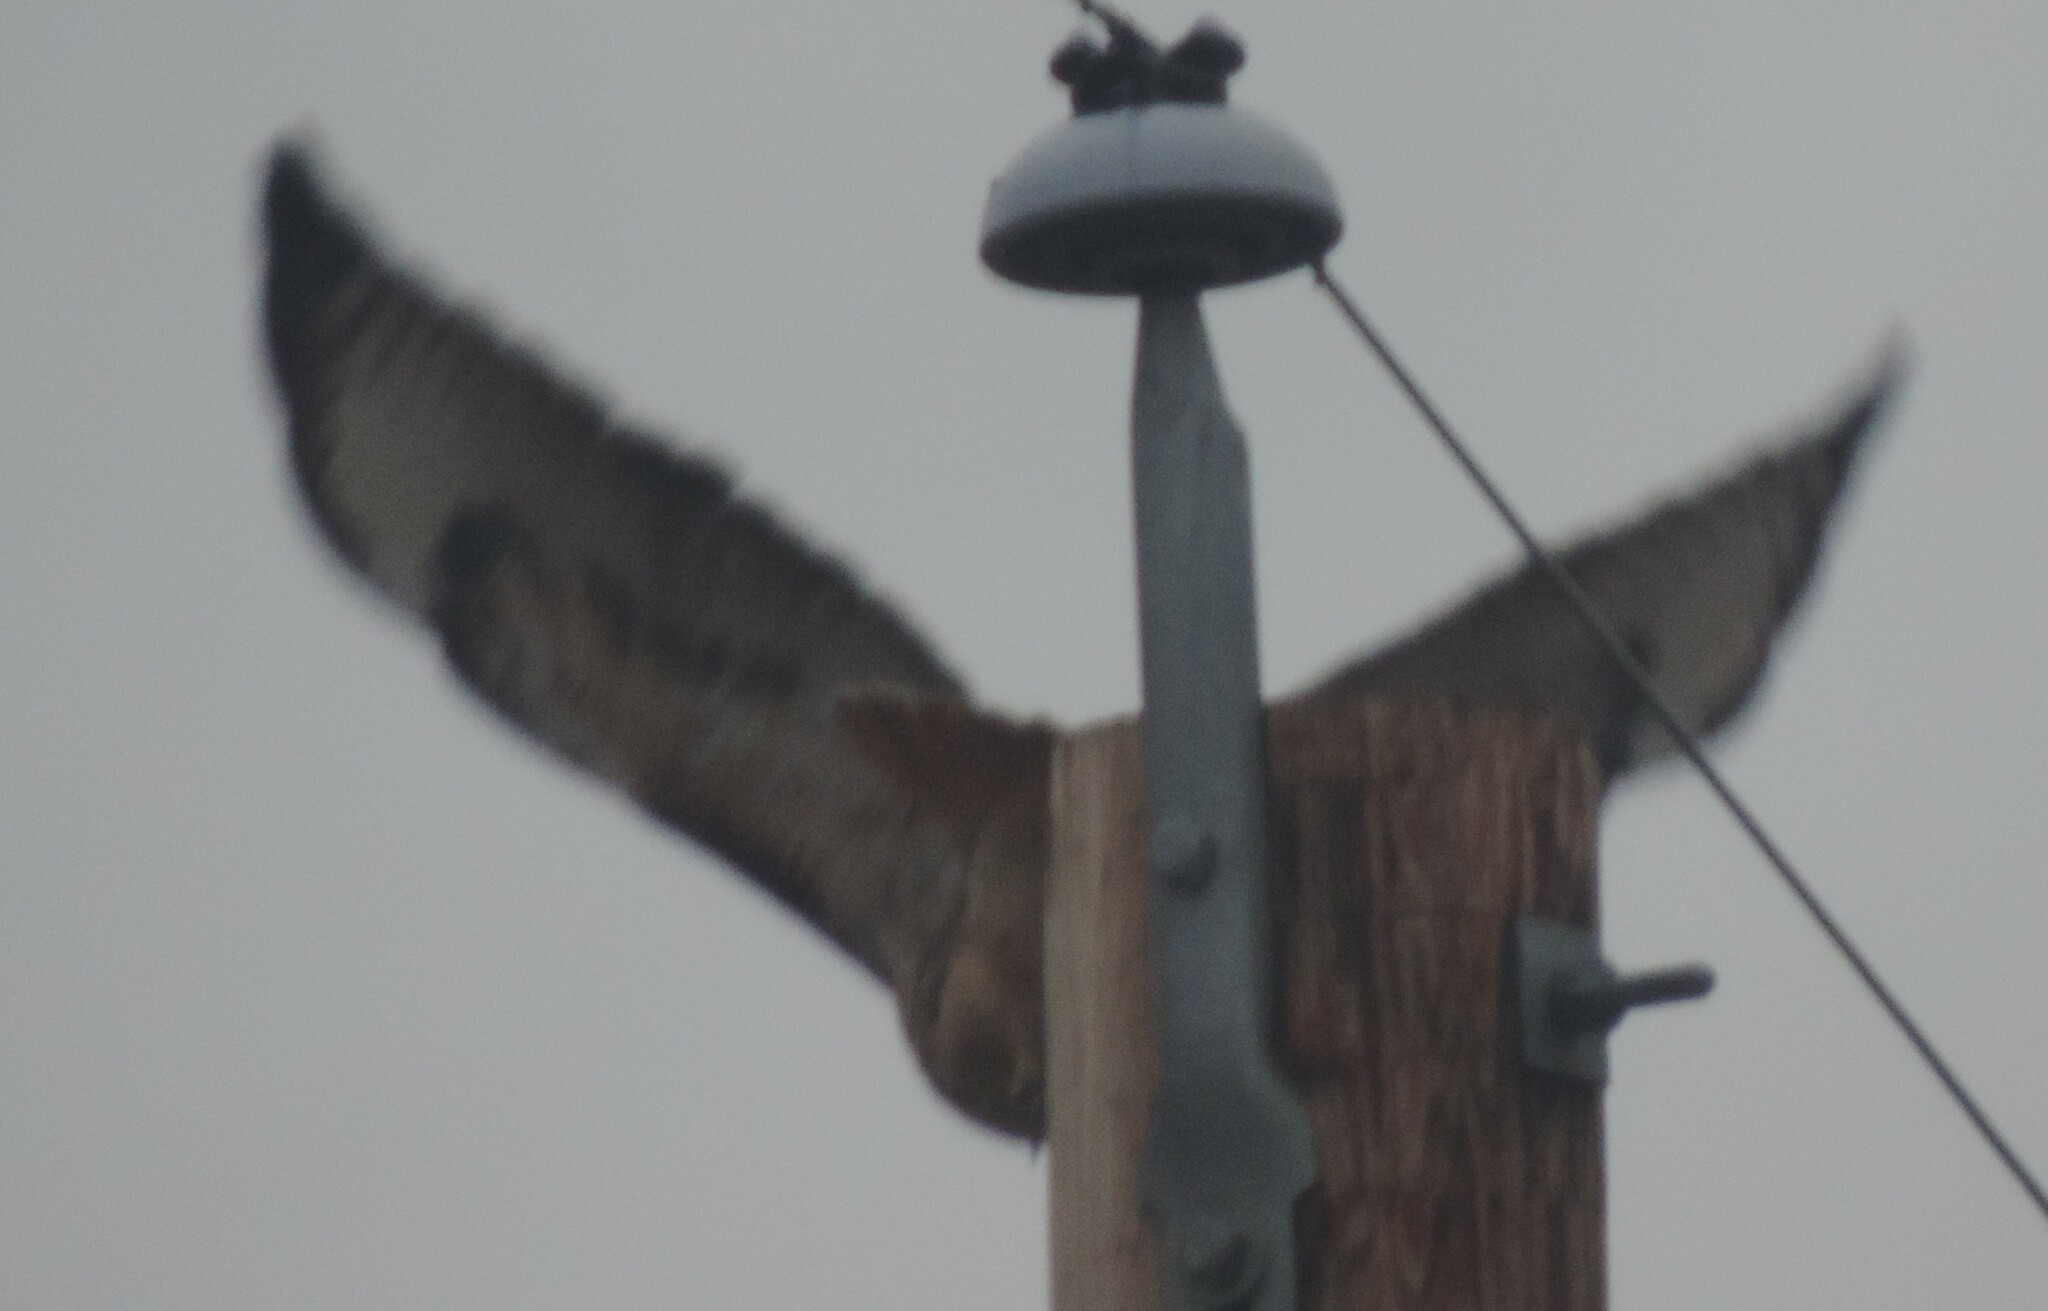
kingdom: Animalia
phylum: Chordata
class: Aves
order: Accipitriformes
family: Accipitridae
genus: Buteo
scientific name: Buteo jamaicensis
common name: Red-tailed hawk
